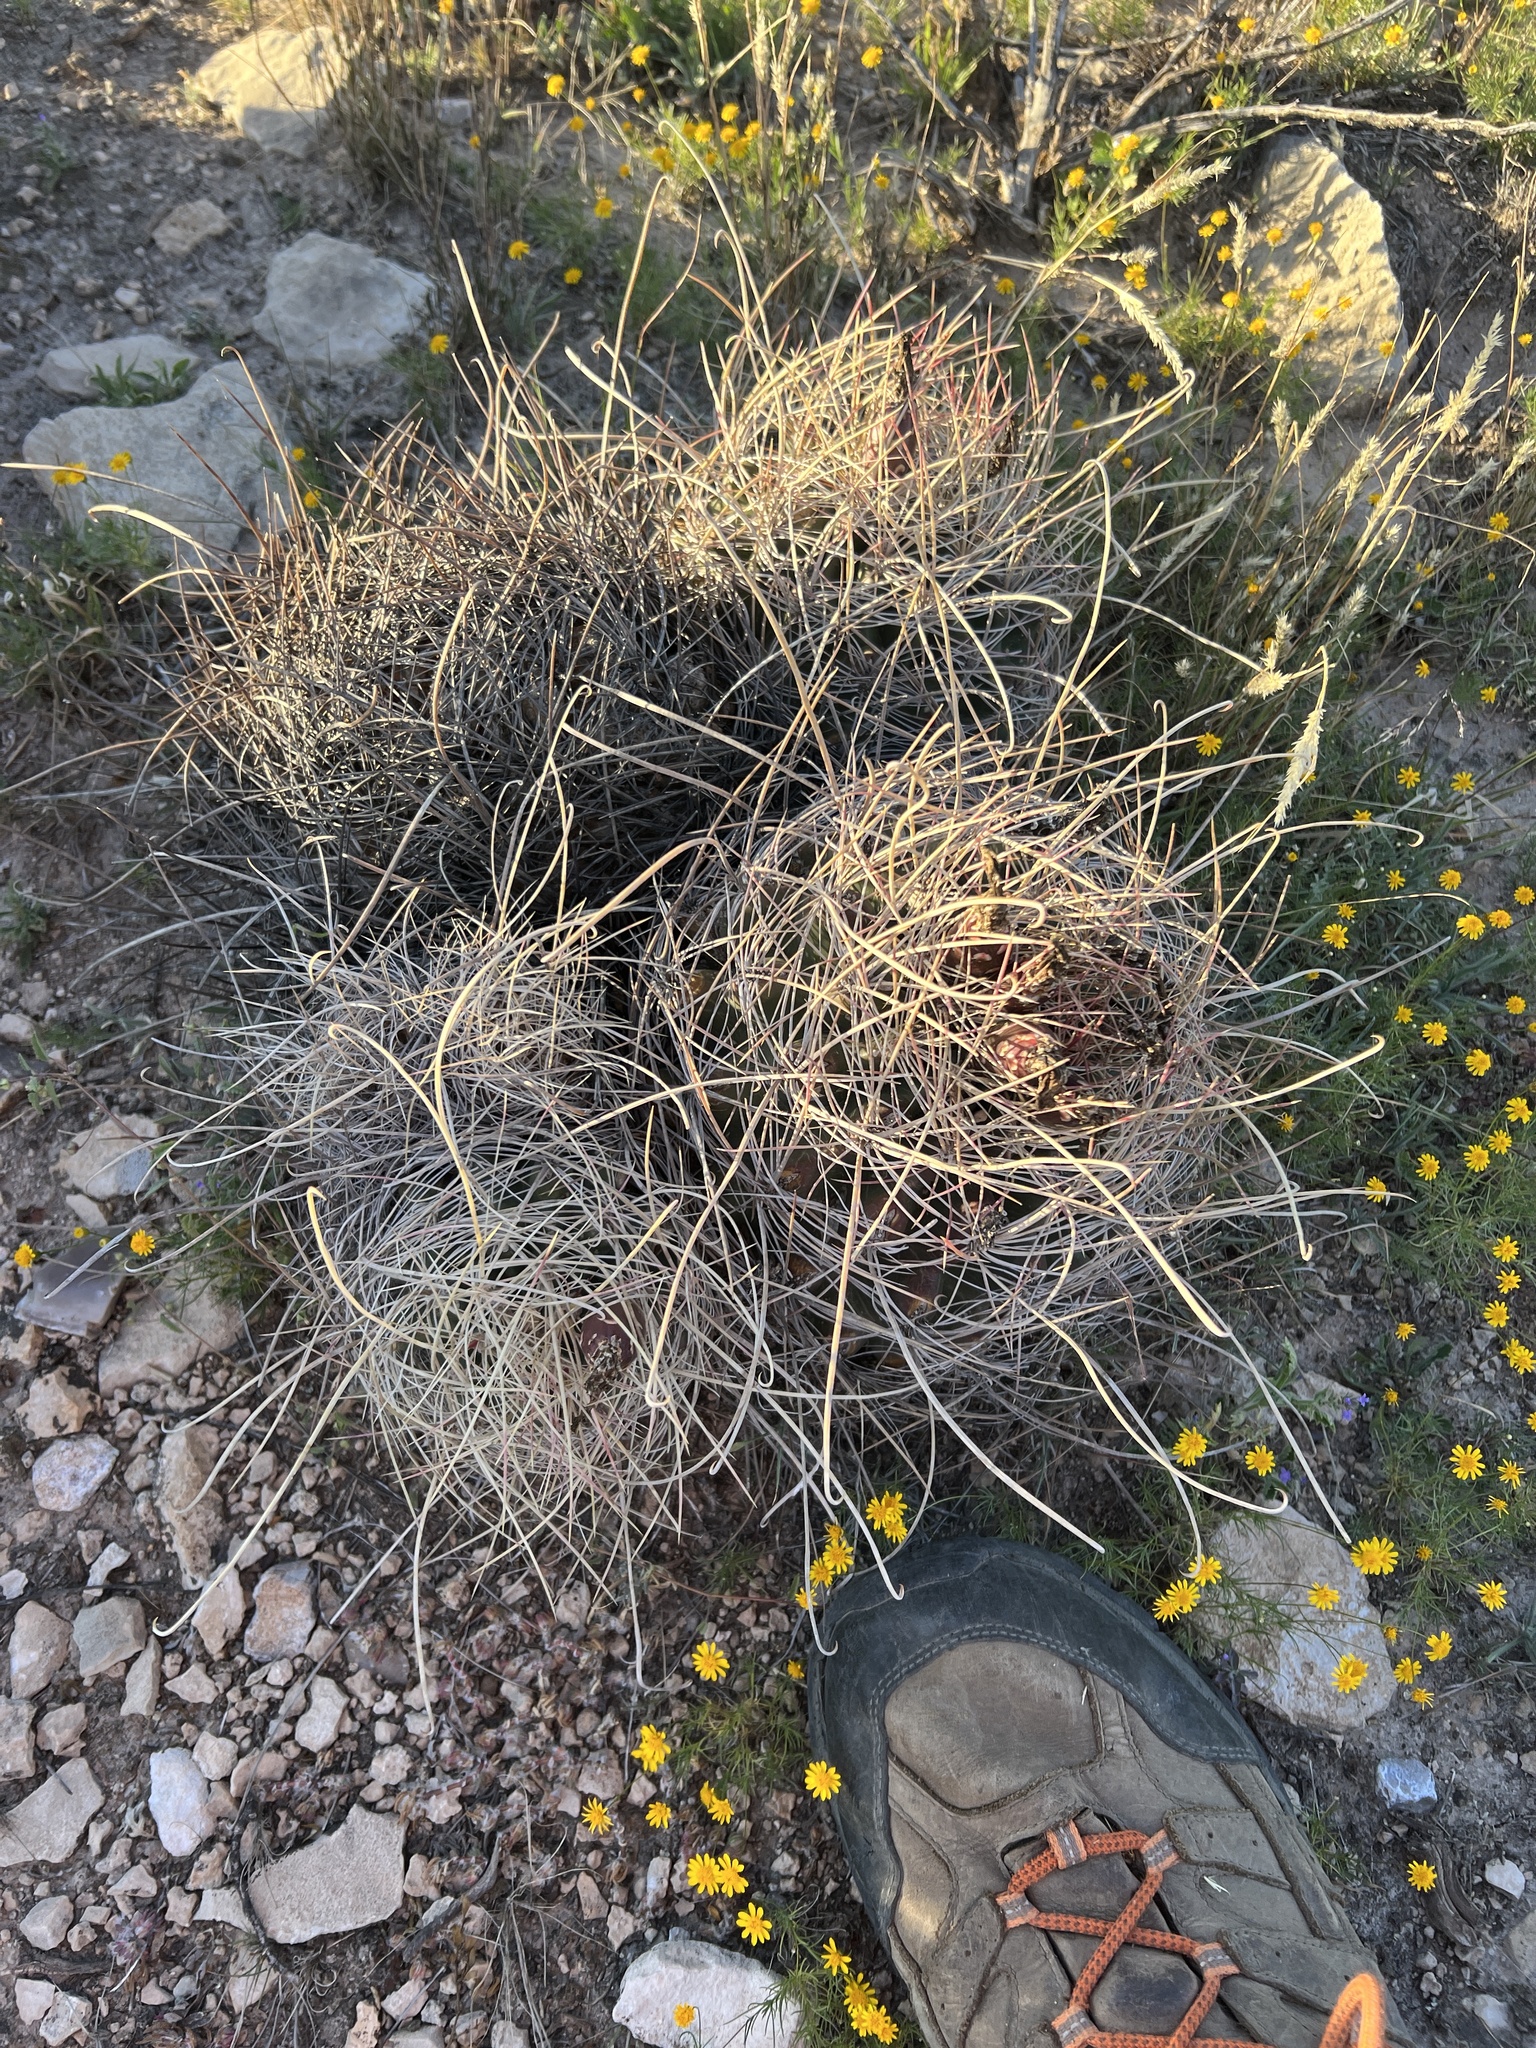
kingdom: Plantae
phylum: Tracheophyta
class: Magnoliopsida
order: Caryophyllales
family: Cactaceae
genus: Bisnaga
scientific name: Bisnaga hamatacantha
